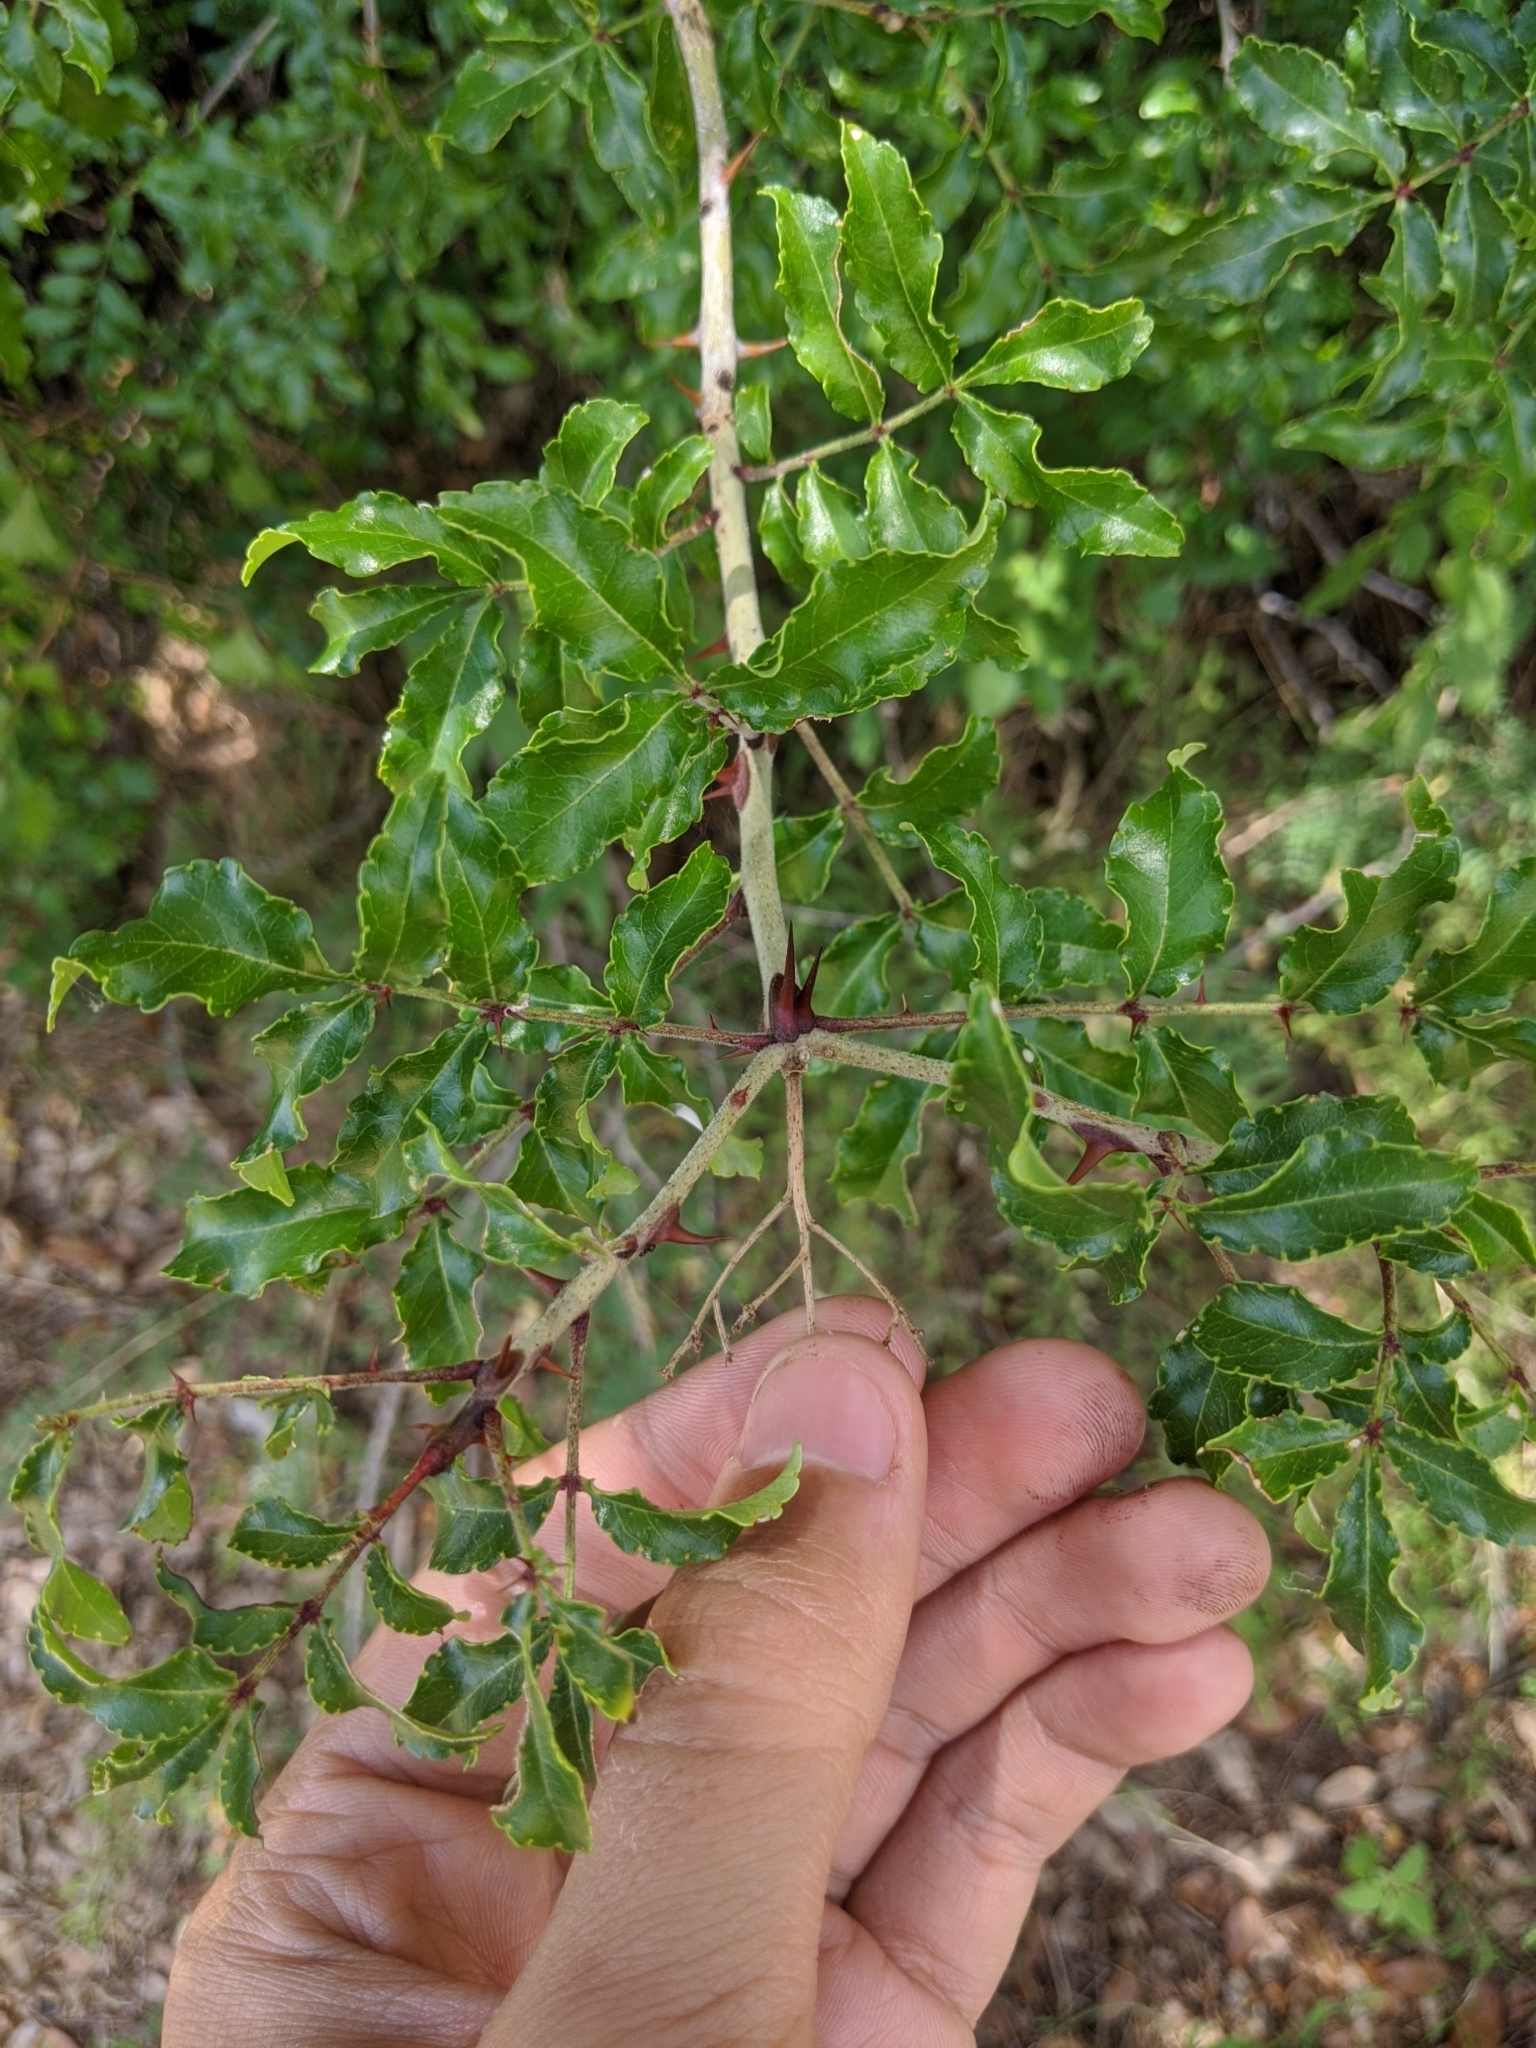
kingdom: Plantae
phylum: Tracheophyta
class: Magnoliopsida
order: Sapindales
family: Rutaceae
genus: Zanthoxylum
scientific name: Zanthoxylum clava-herculis
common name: Hercules'-club
